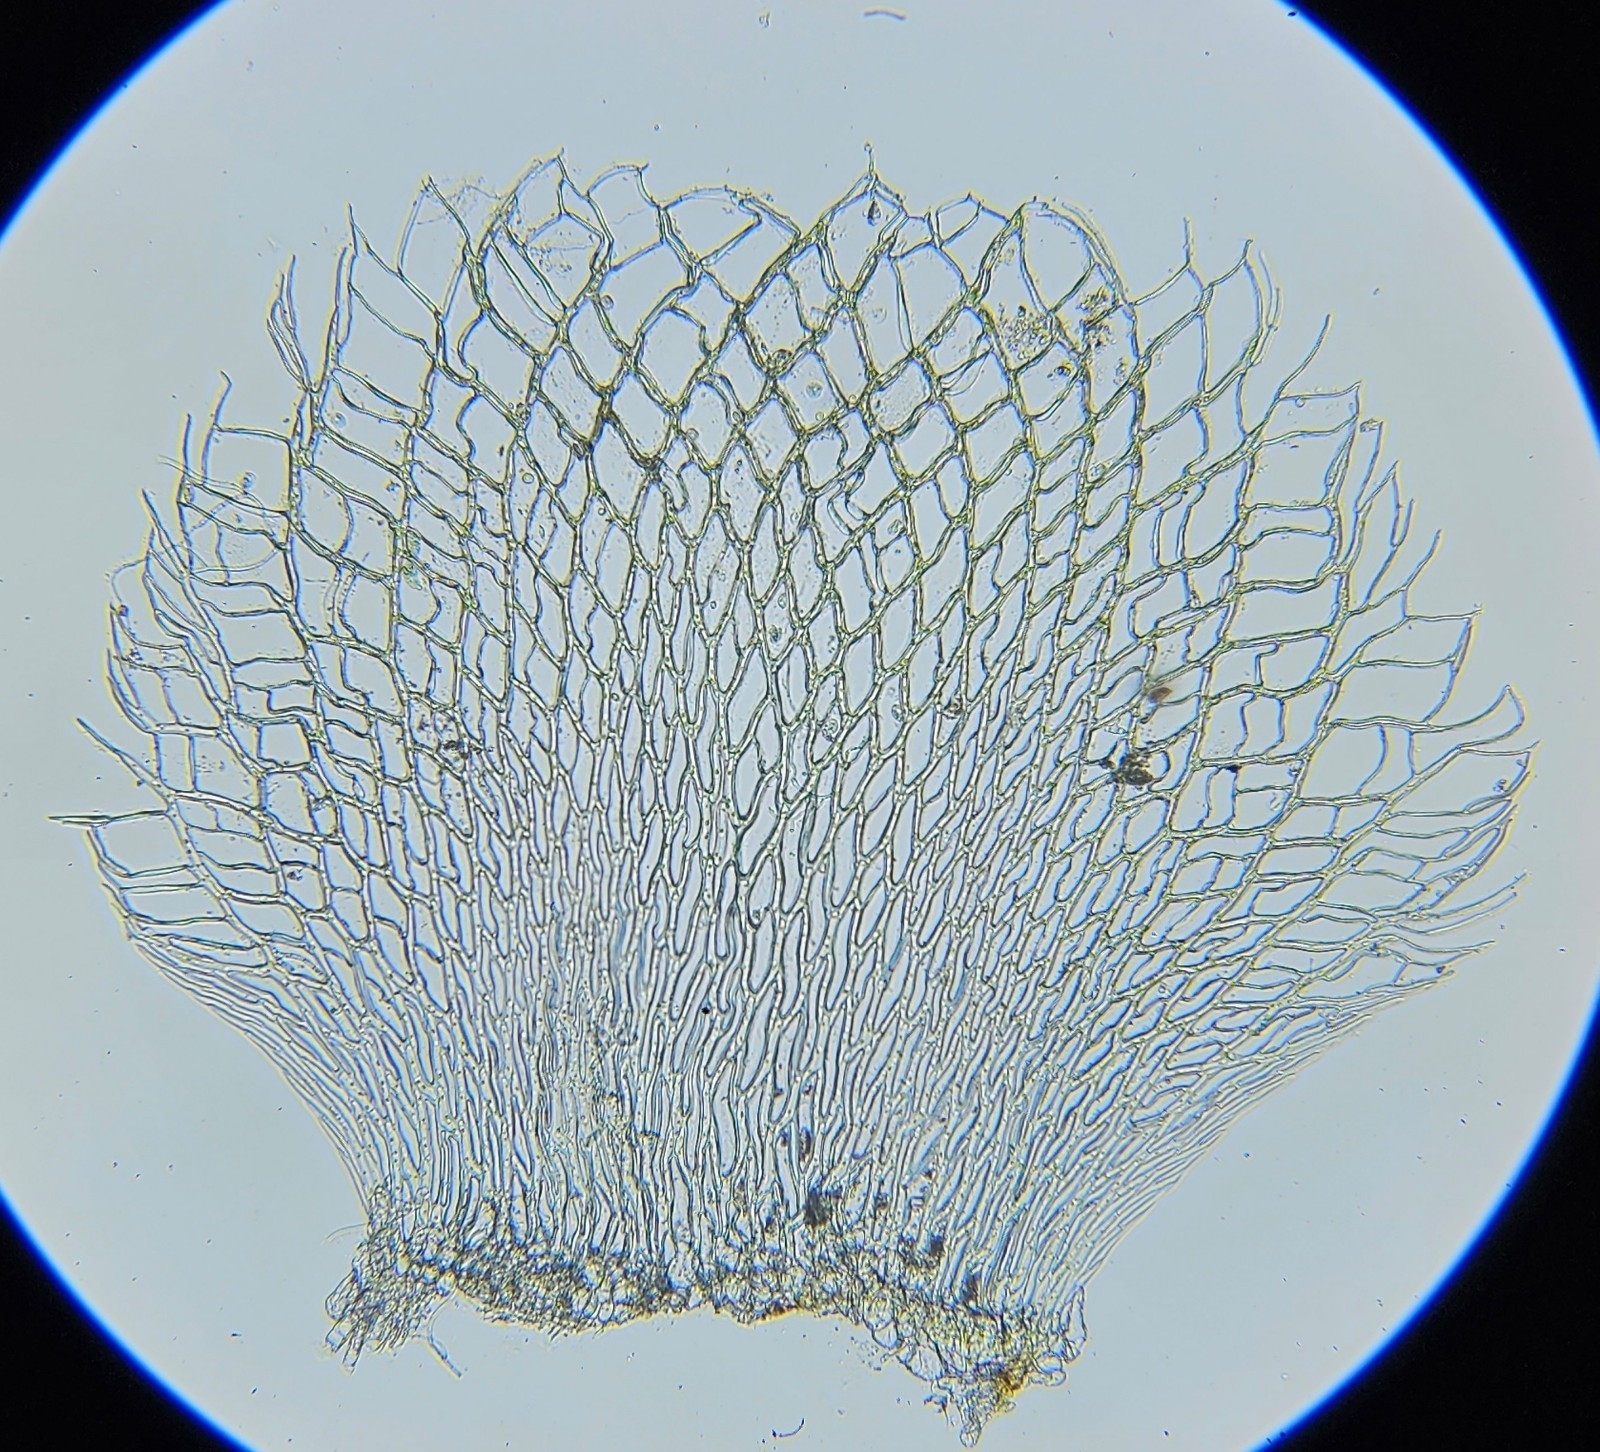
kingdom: Plantae
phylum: Bryophyta
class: Sphagnopsida
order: Sphagnales
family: Sphagnaceae
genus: Sphagnum
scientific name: Sphagnum fimbriatum
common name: Fringed peat moss
